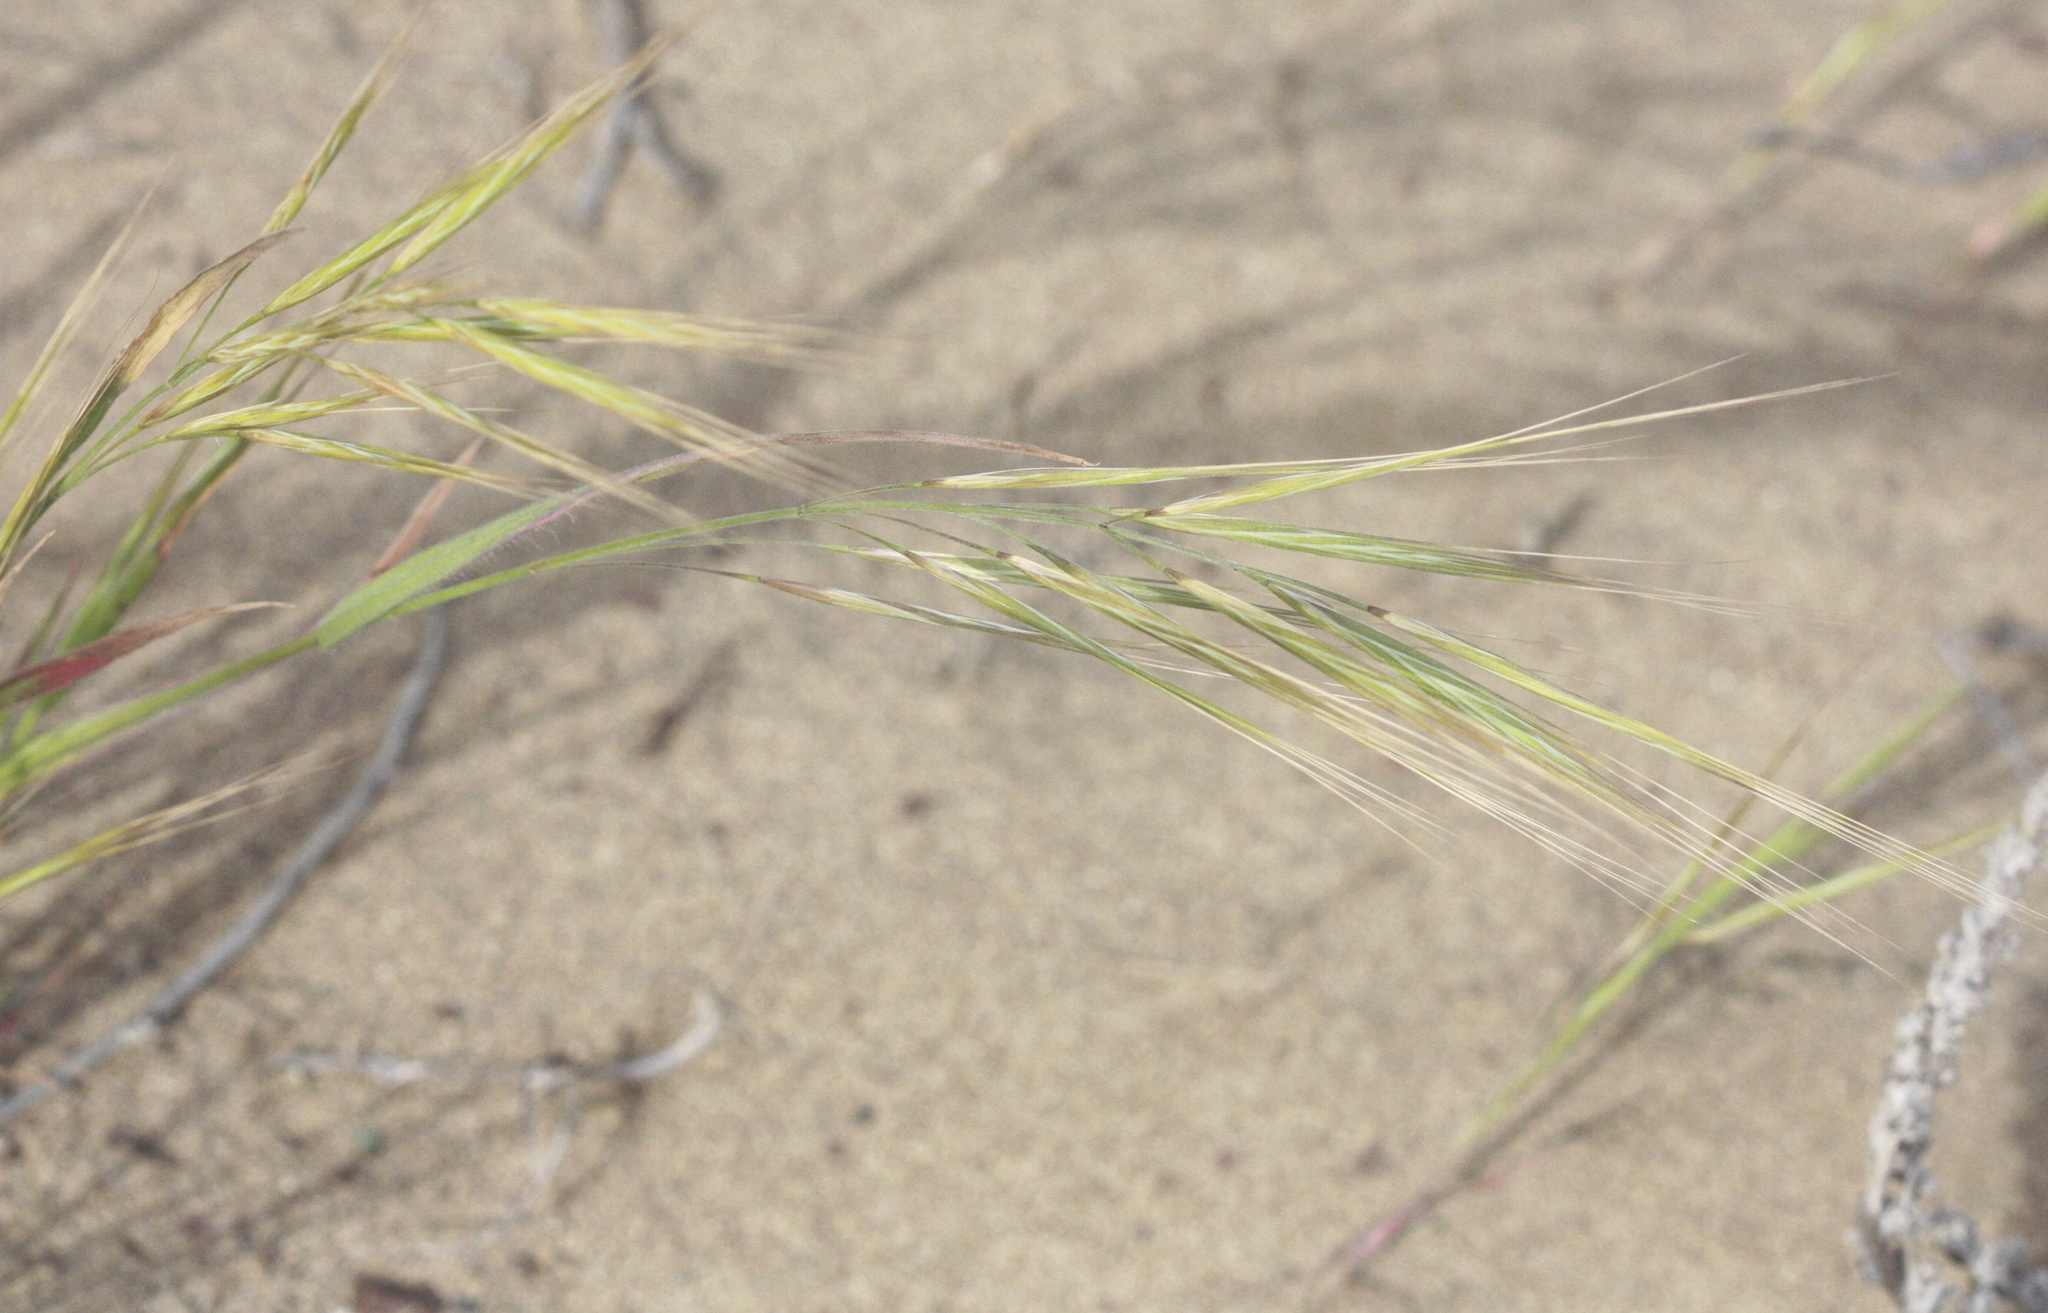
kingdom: Plantae
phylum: Tracheophyta
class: Liliopsida
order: Poales
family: Poaceae
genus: Bromus
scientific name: Bromus diandrus
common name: Ripgut brome
